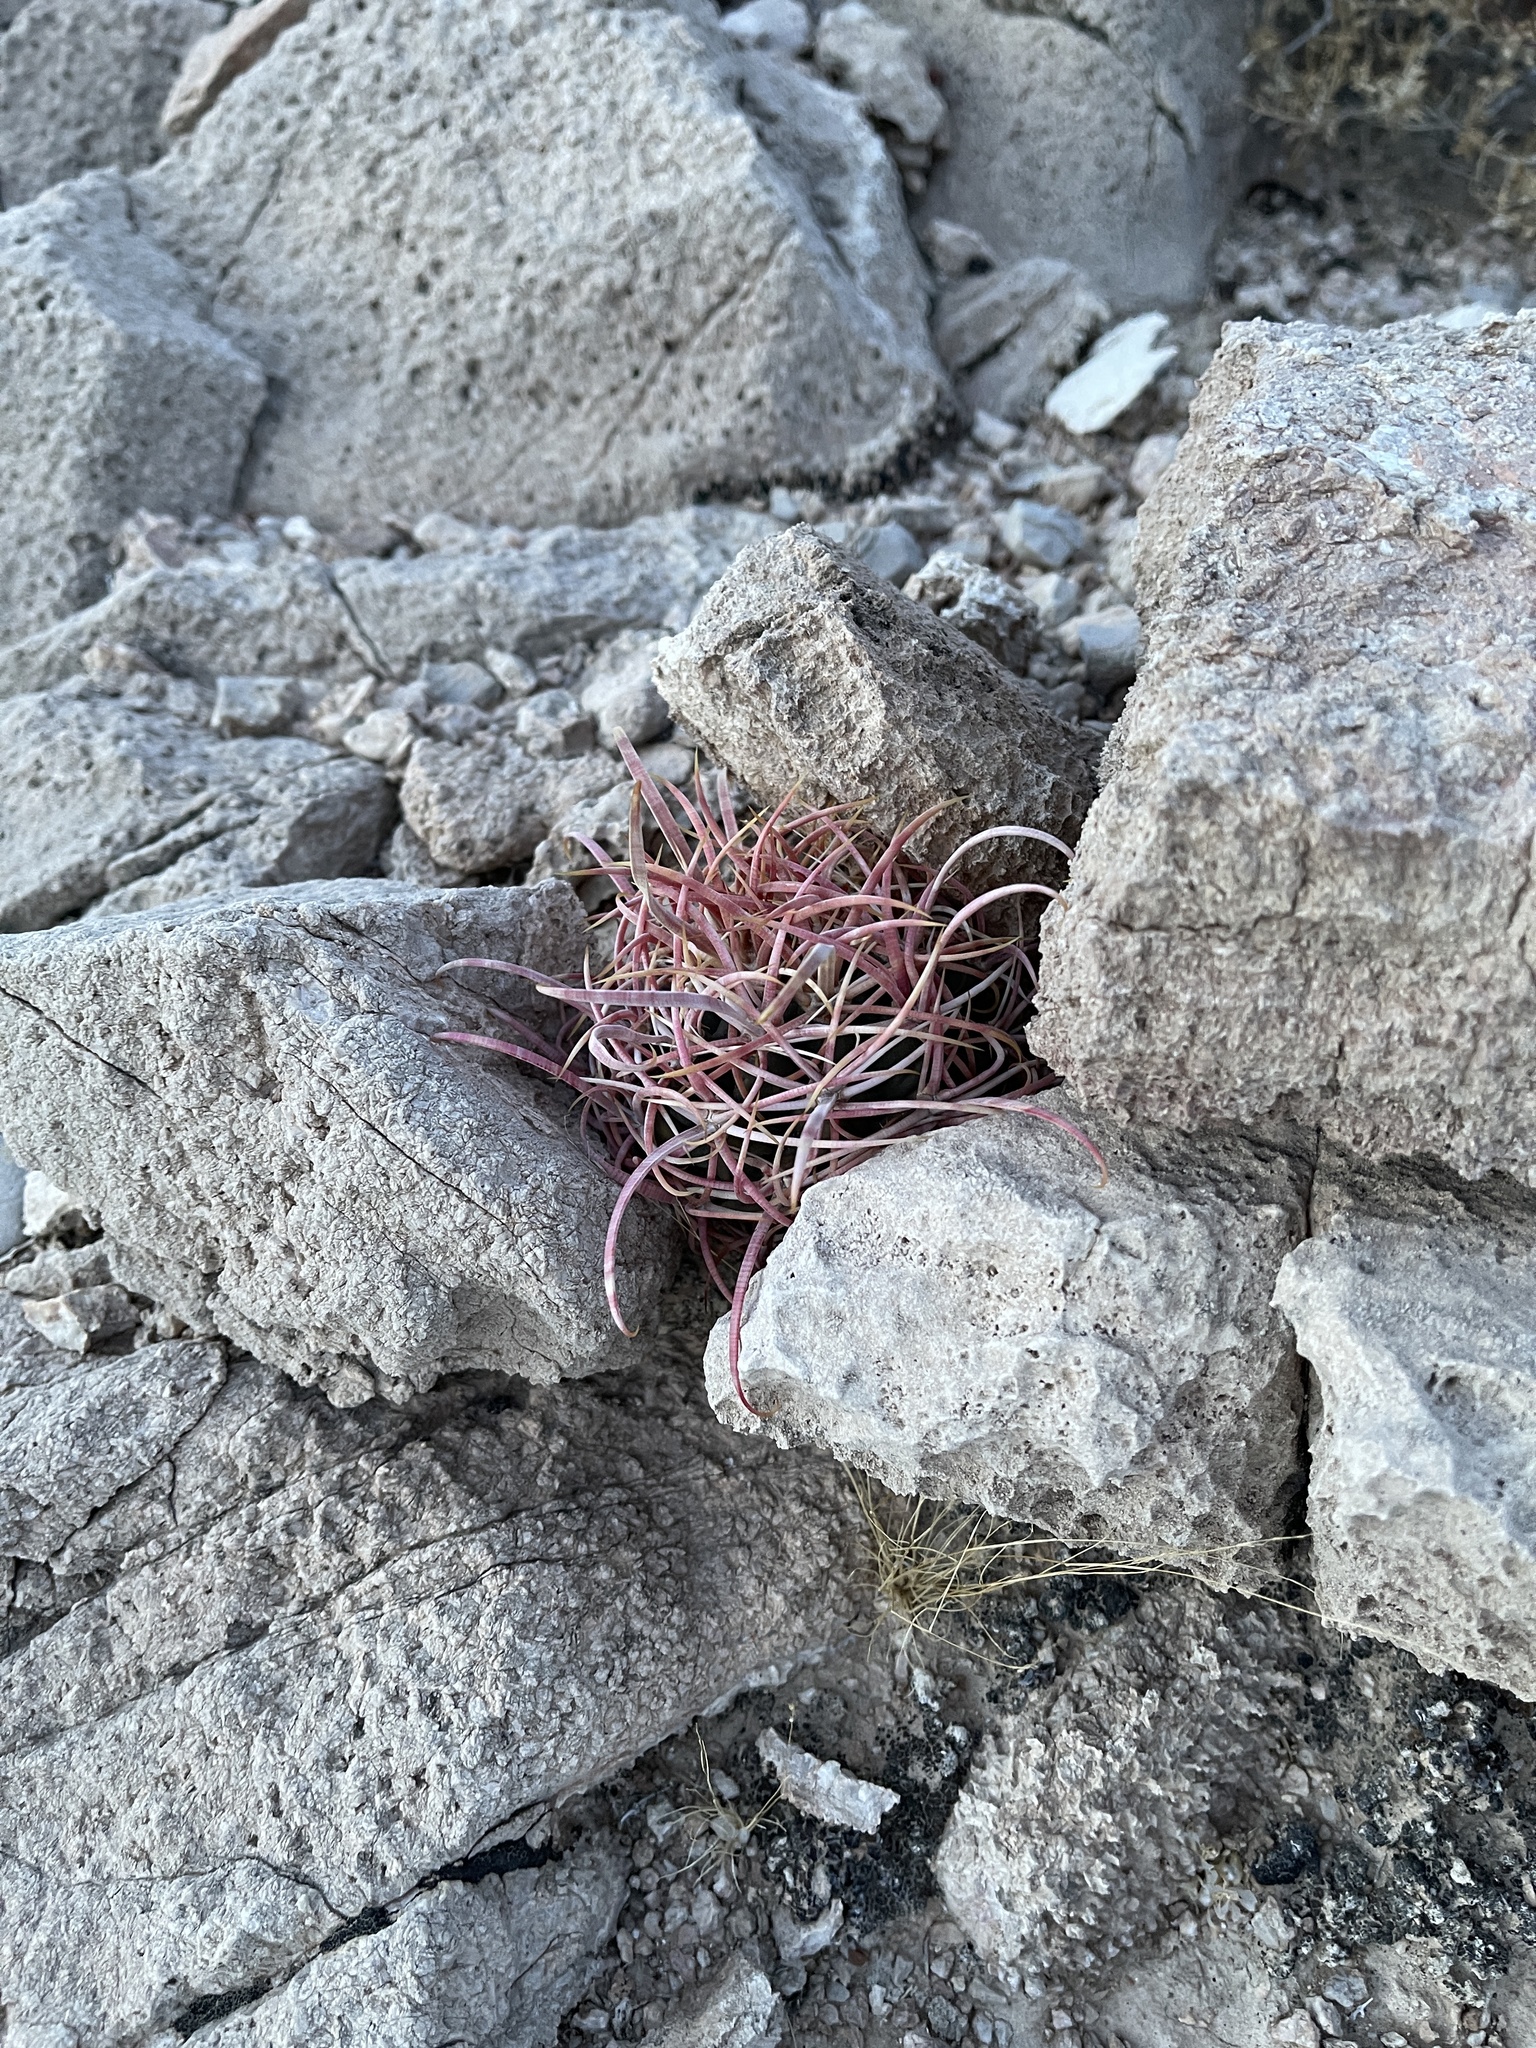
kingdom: Plantae
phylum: Tracheophyta
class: Magnoliopsida
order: Caryophyllales
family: Cactaceae
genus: Ferocactus
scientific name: Ferocactus cylindraceus
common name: California barrel cactus
